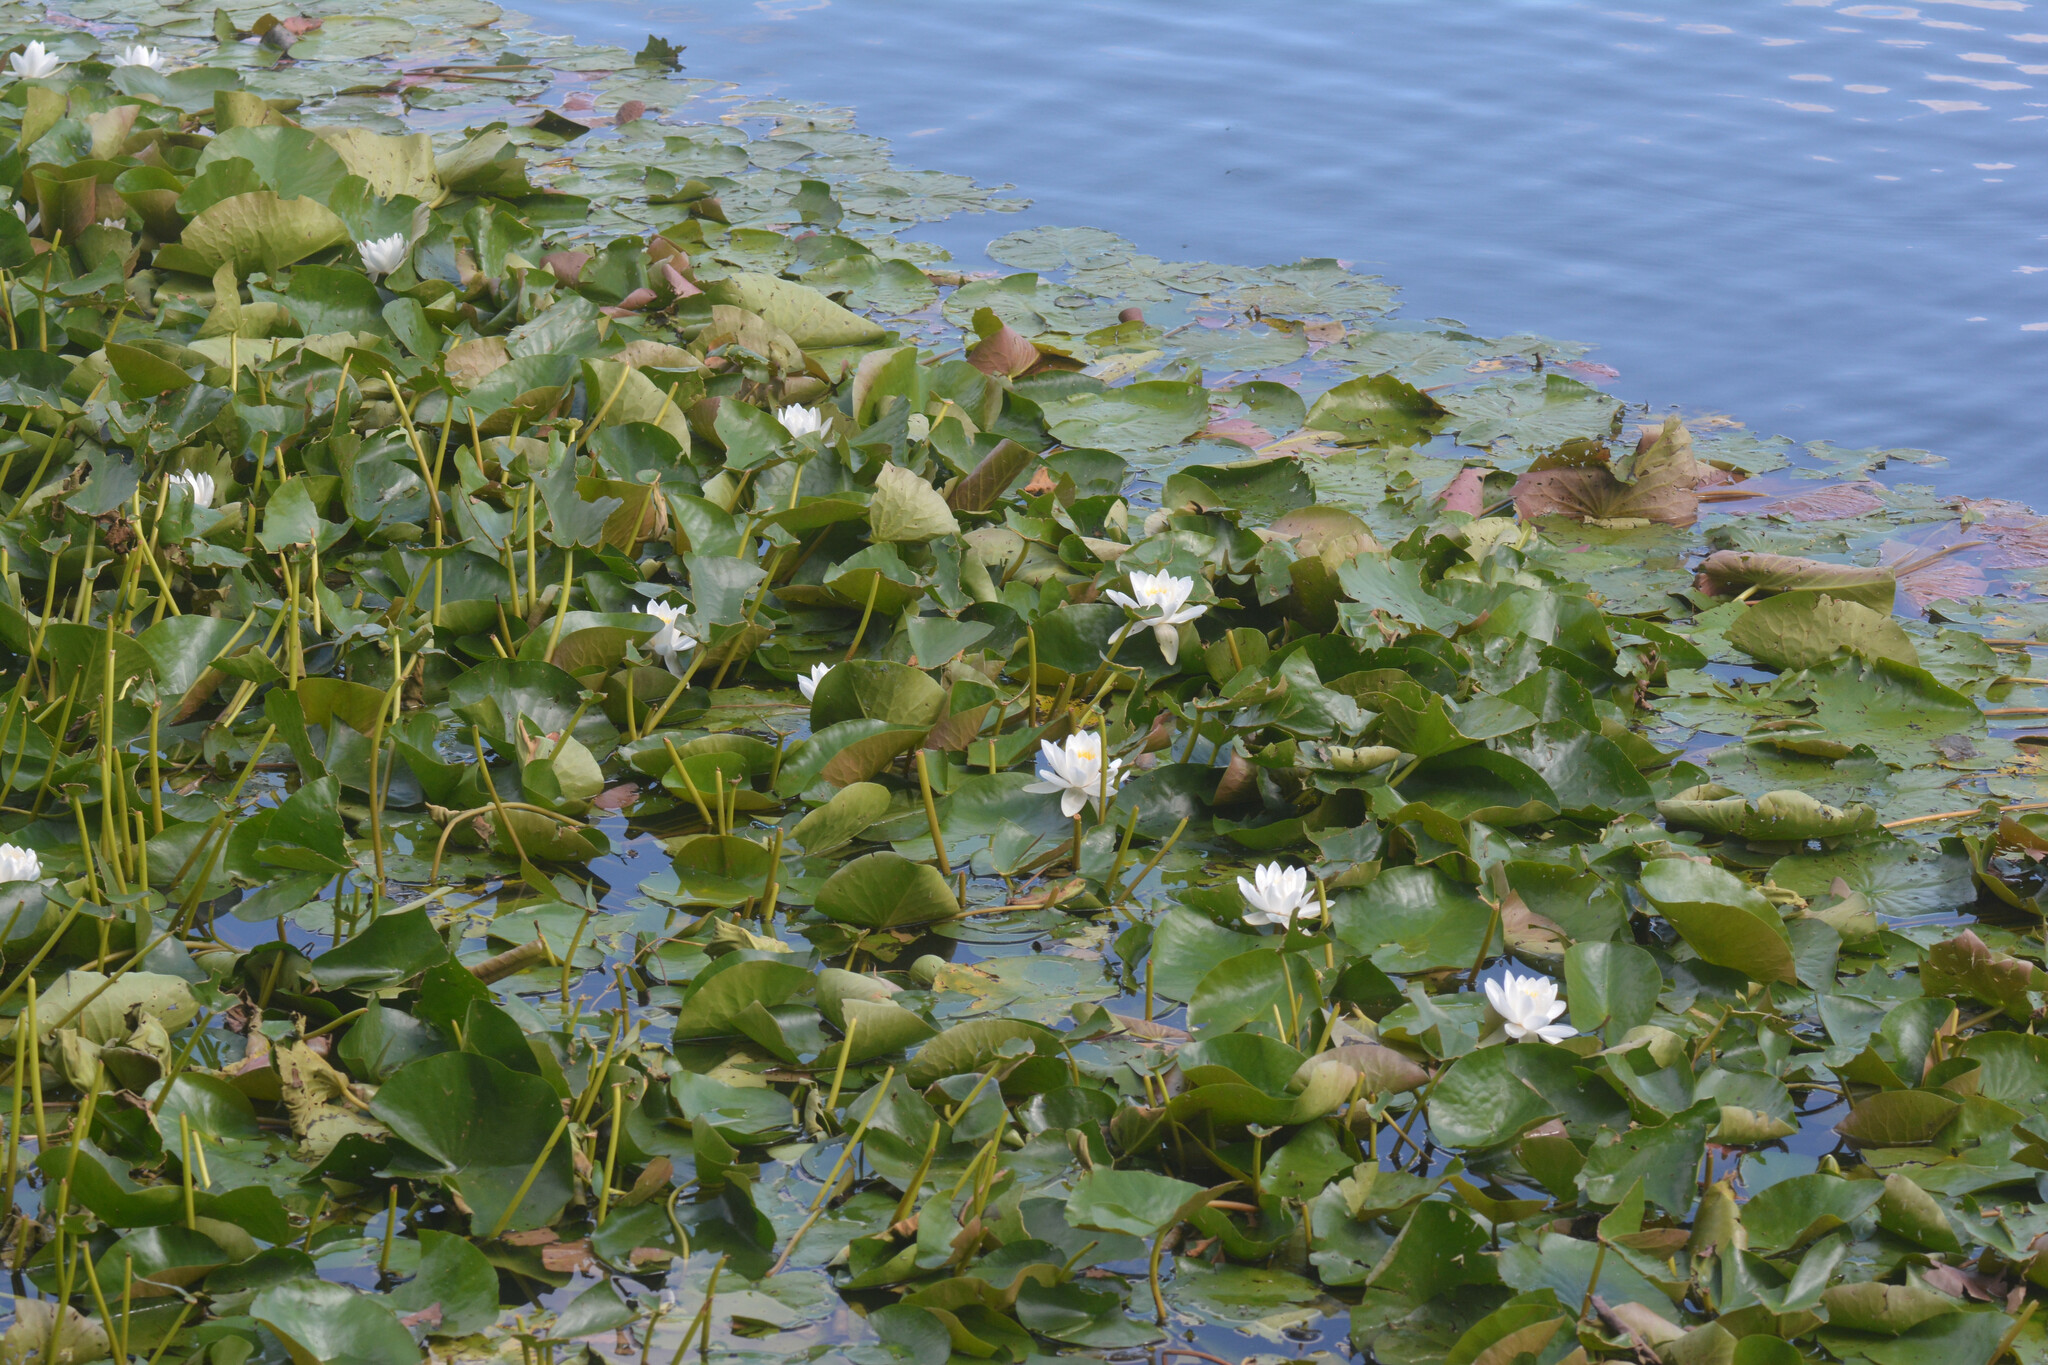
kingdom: Plantae
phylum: Tracheophyta
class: Magnoliopsida
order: Nymphaeales
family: Nymphaeaceae
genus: Nymphaea
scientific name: Nymphaea alba
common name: White water-lily
